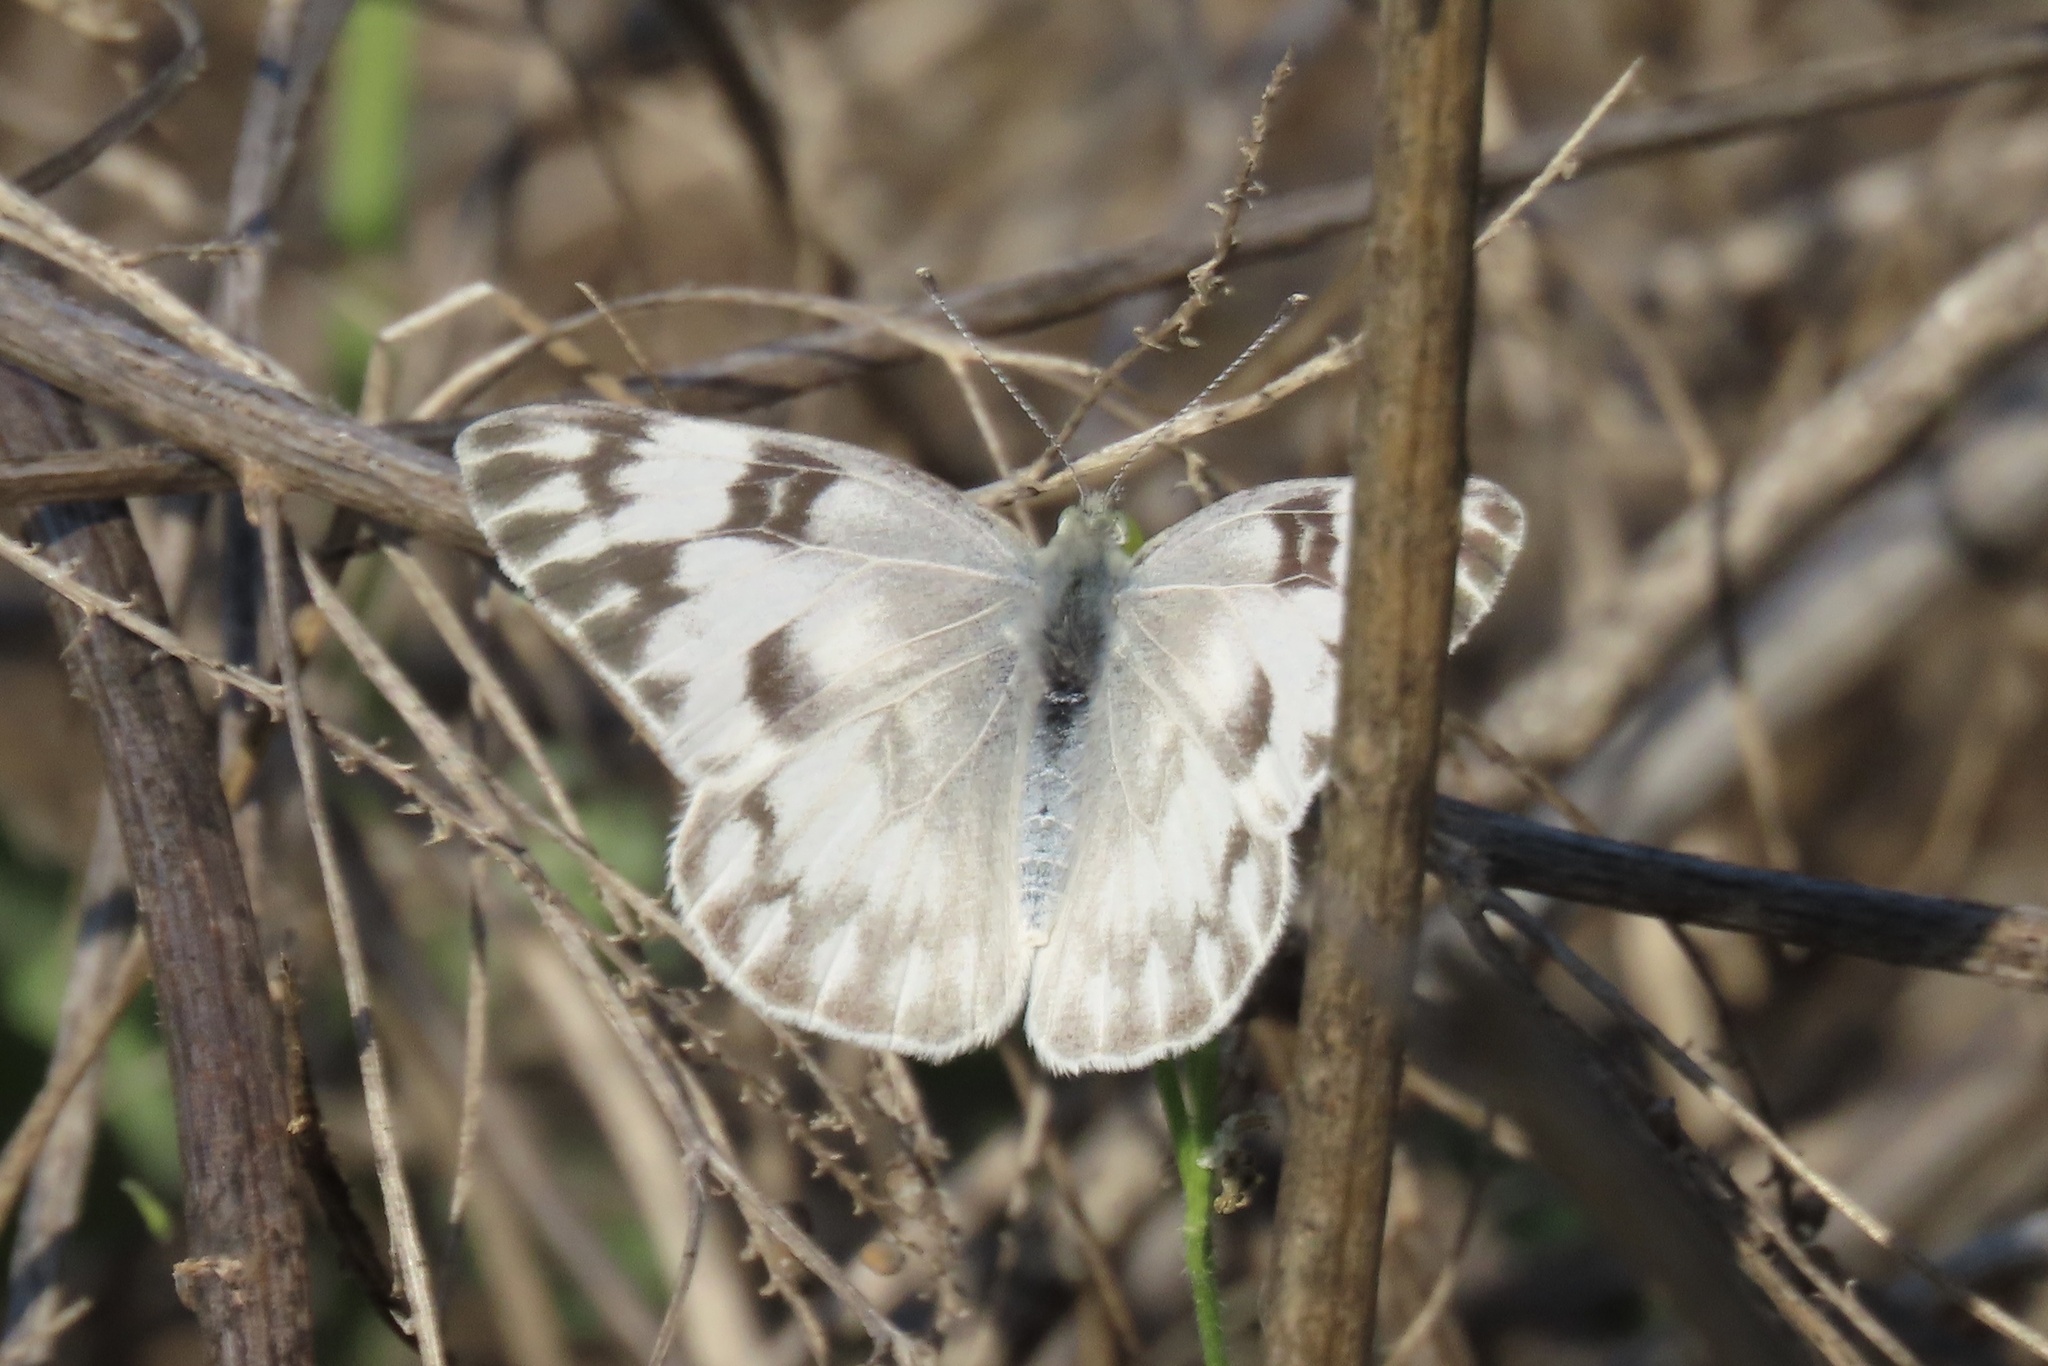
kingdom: Animalia
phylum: Arthropoda
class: Insecta
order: Lepidoptera
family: Pieridae
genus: Pontia
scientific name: Pontia protodice
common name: Checkered white
